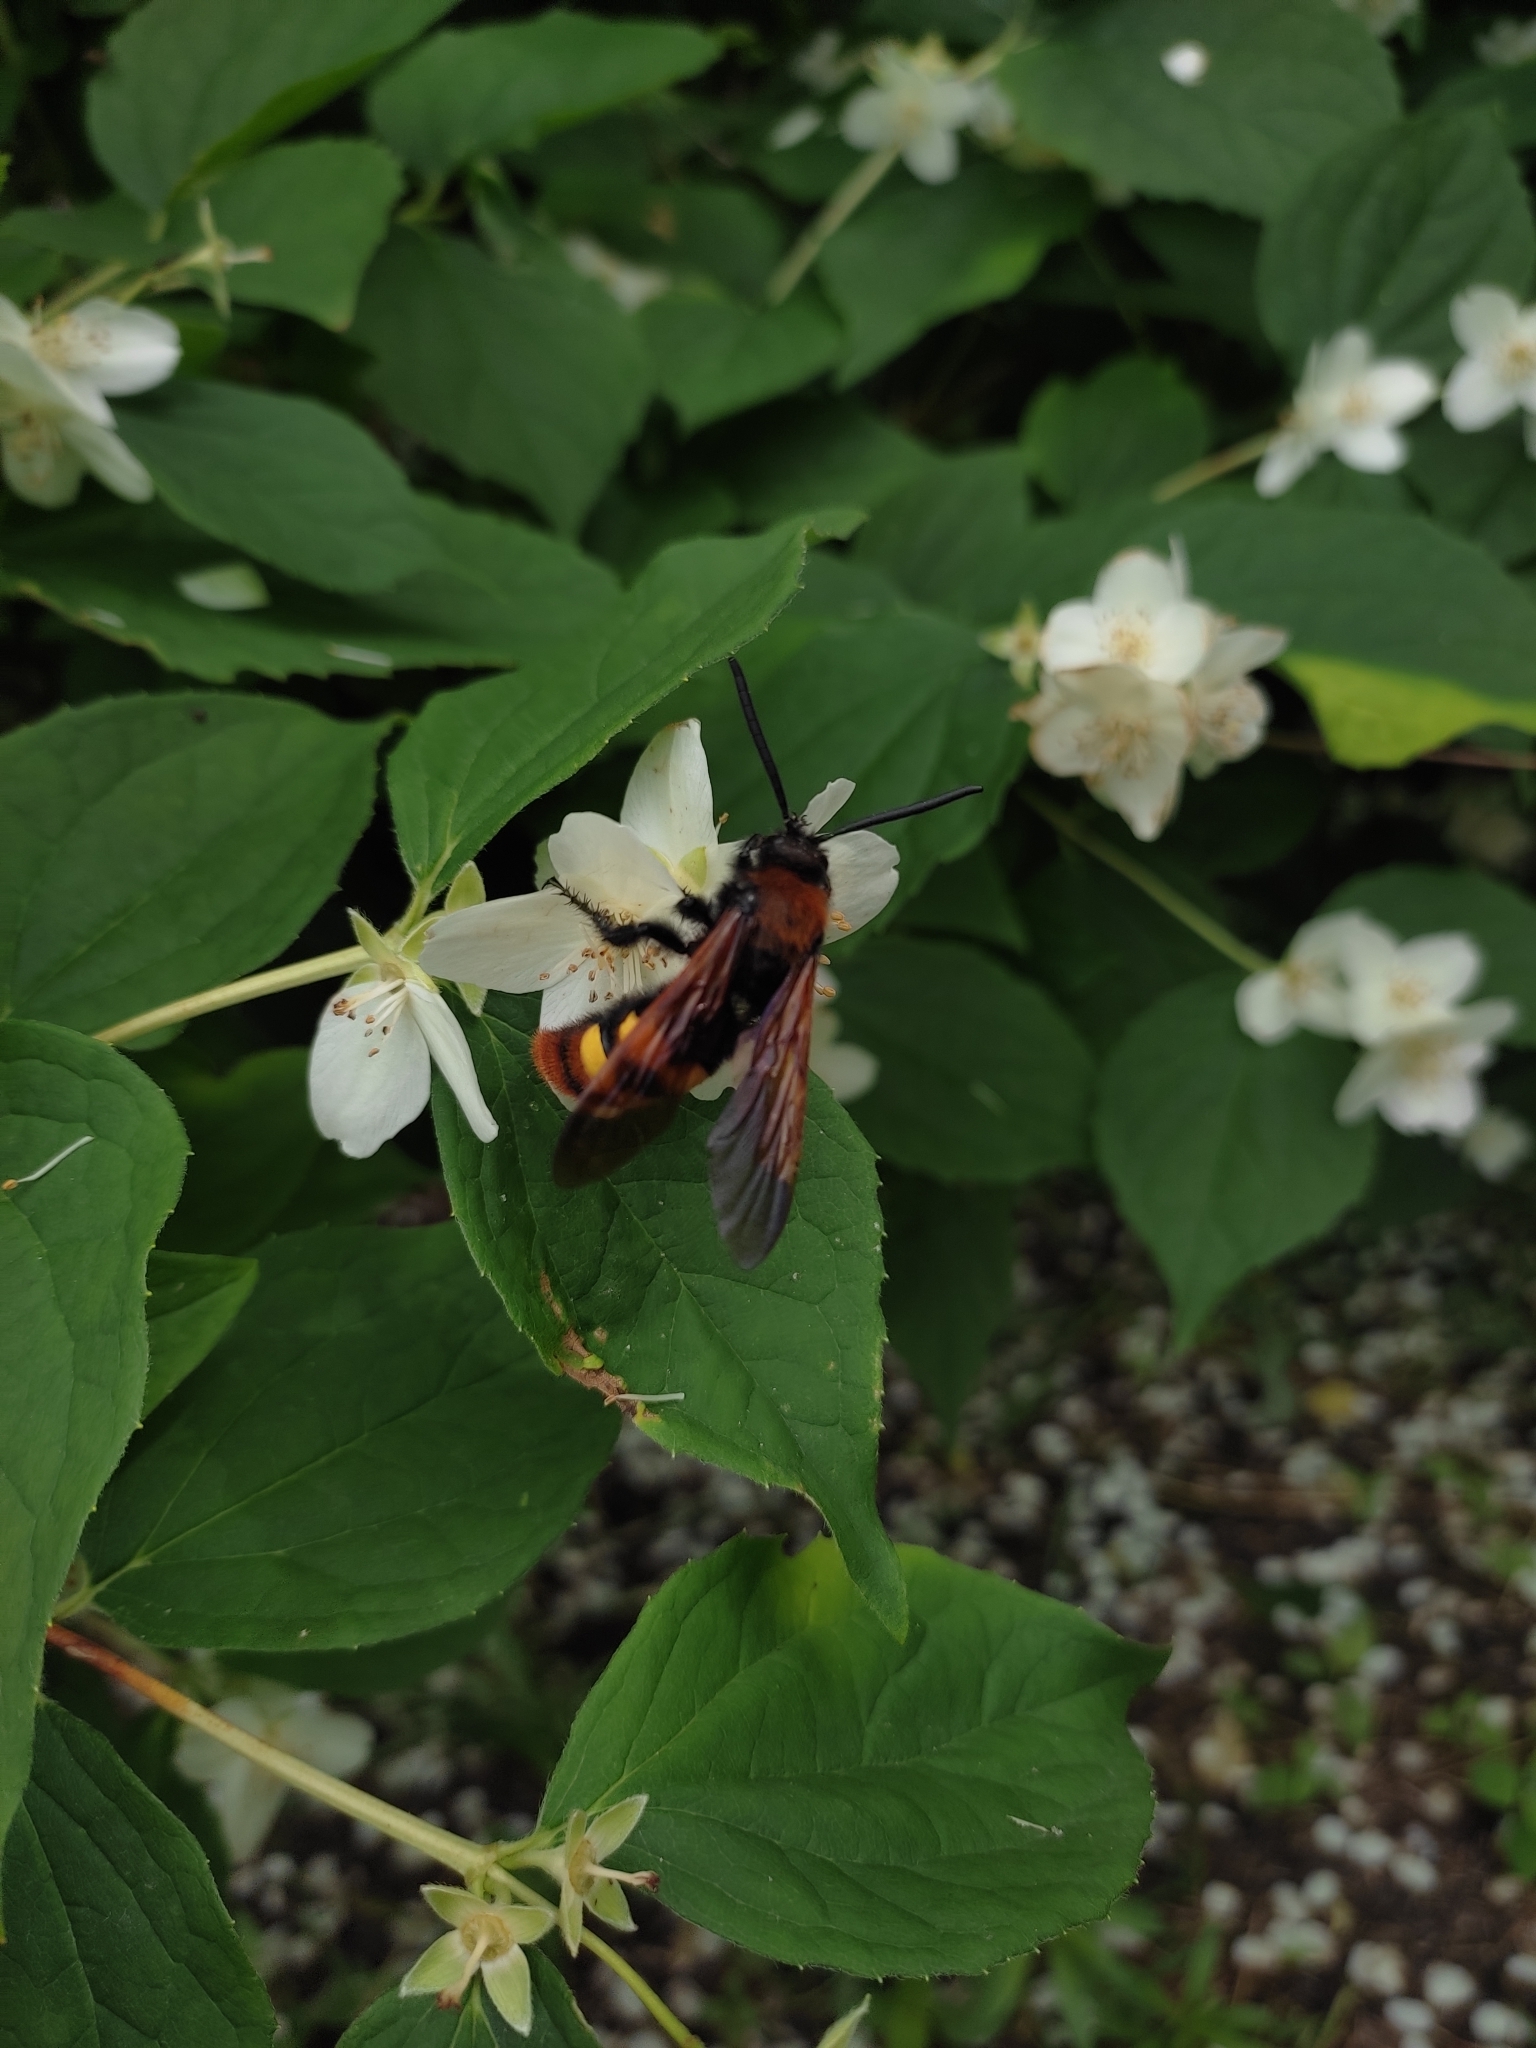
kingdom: Animalia
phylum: Arthropoda
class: Insecta
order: Hymenoptera
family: Scoliidae
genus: Megascolia
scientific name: Megascolia maculata
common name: Mammoth wasp
